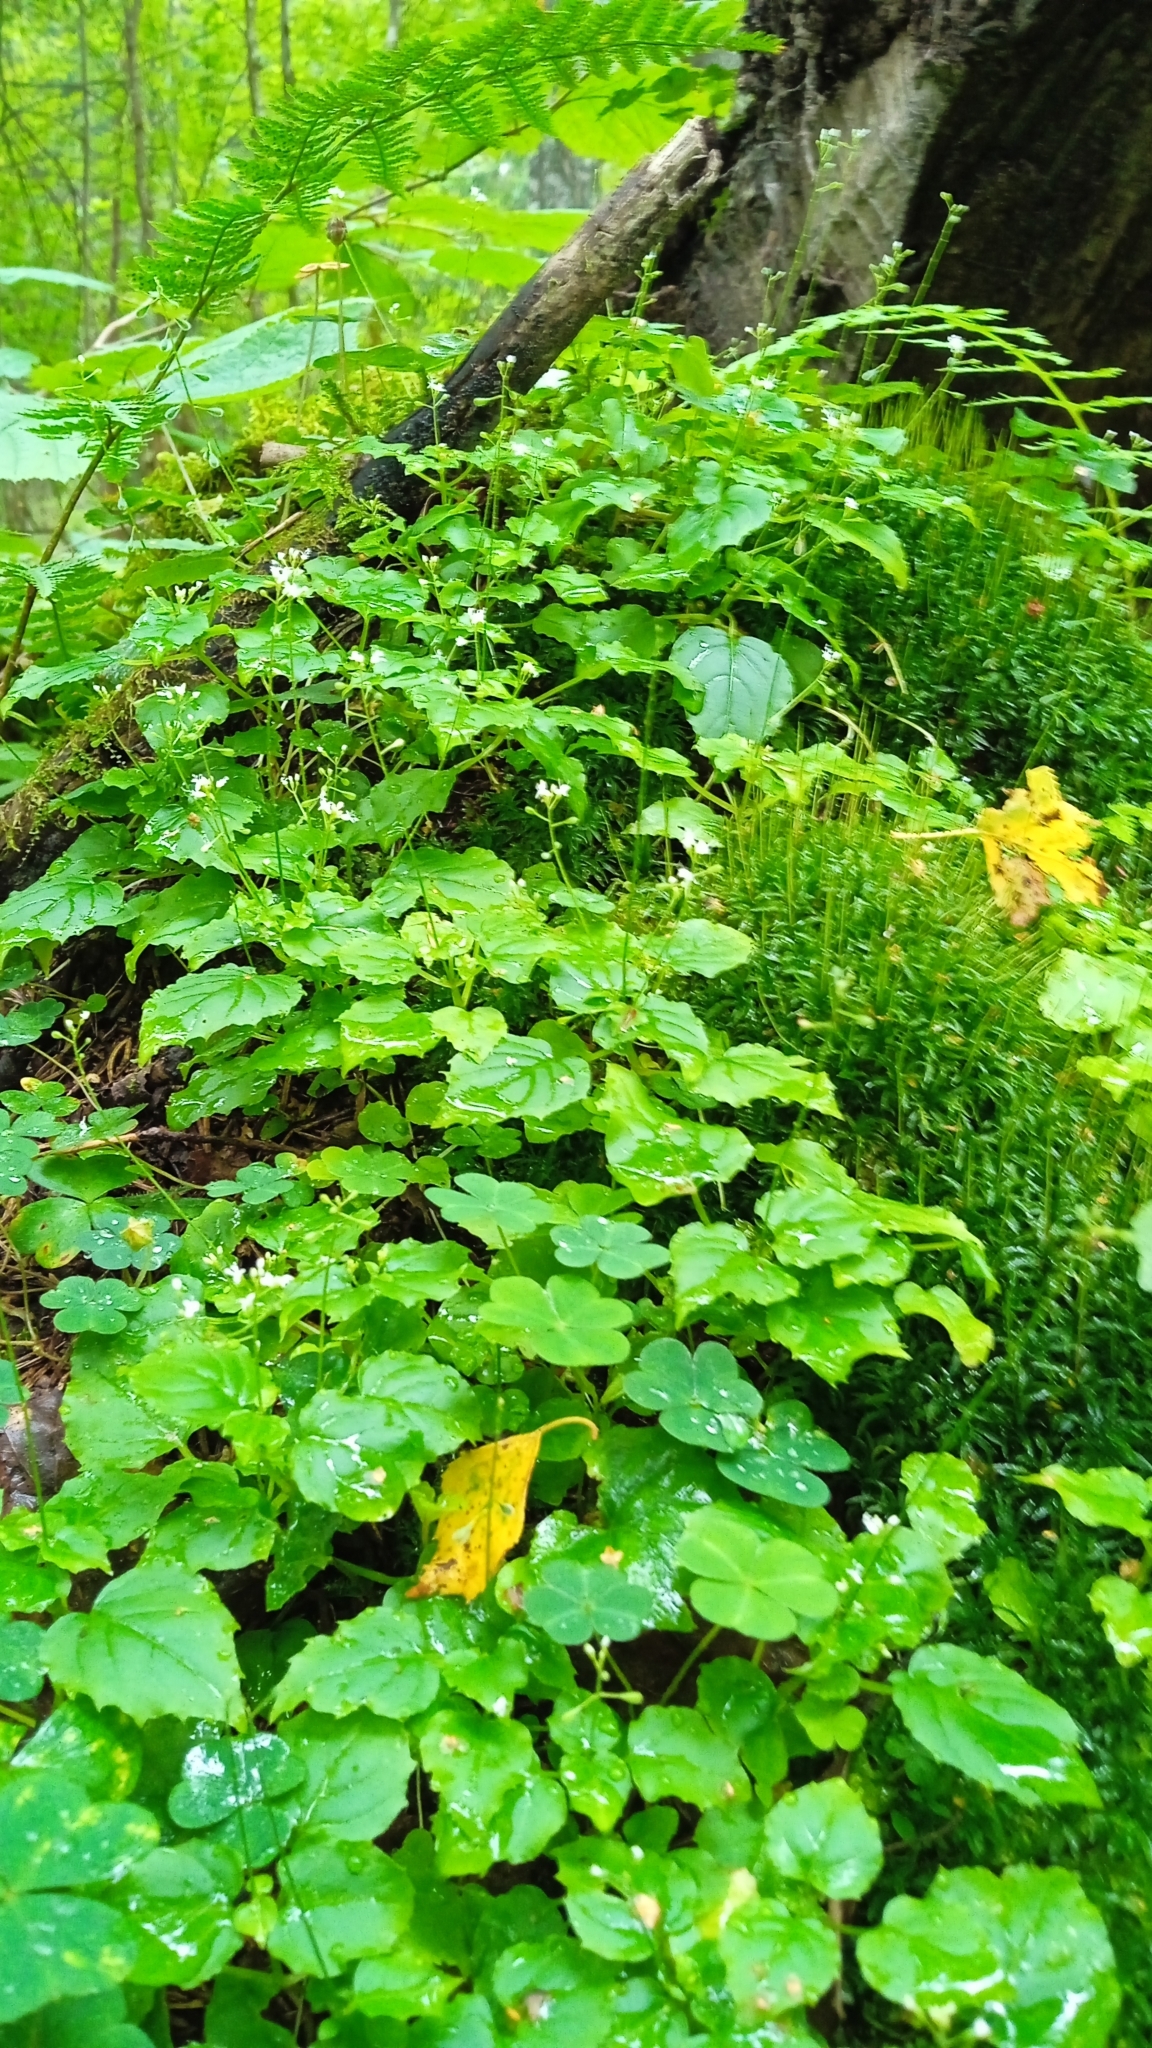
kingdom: Plantae
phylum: Tracheophyta
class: Magnoliopsida
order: Myrtales
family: Onagraceae
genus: Circaea
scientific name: Circaea alpina
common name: Alpine enchanter's-nightshade
